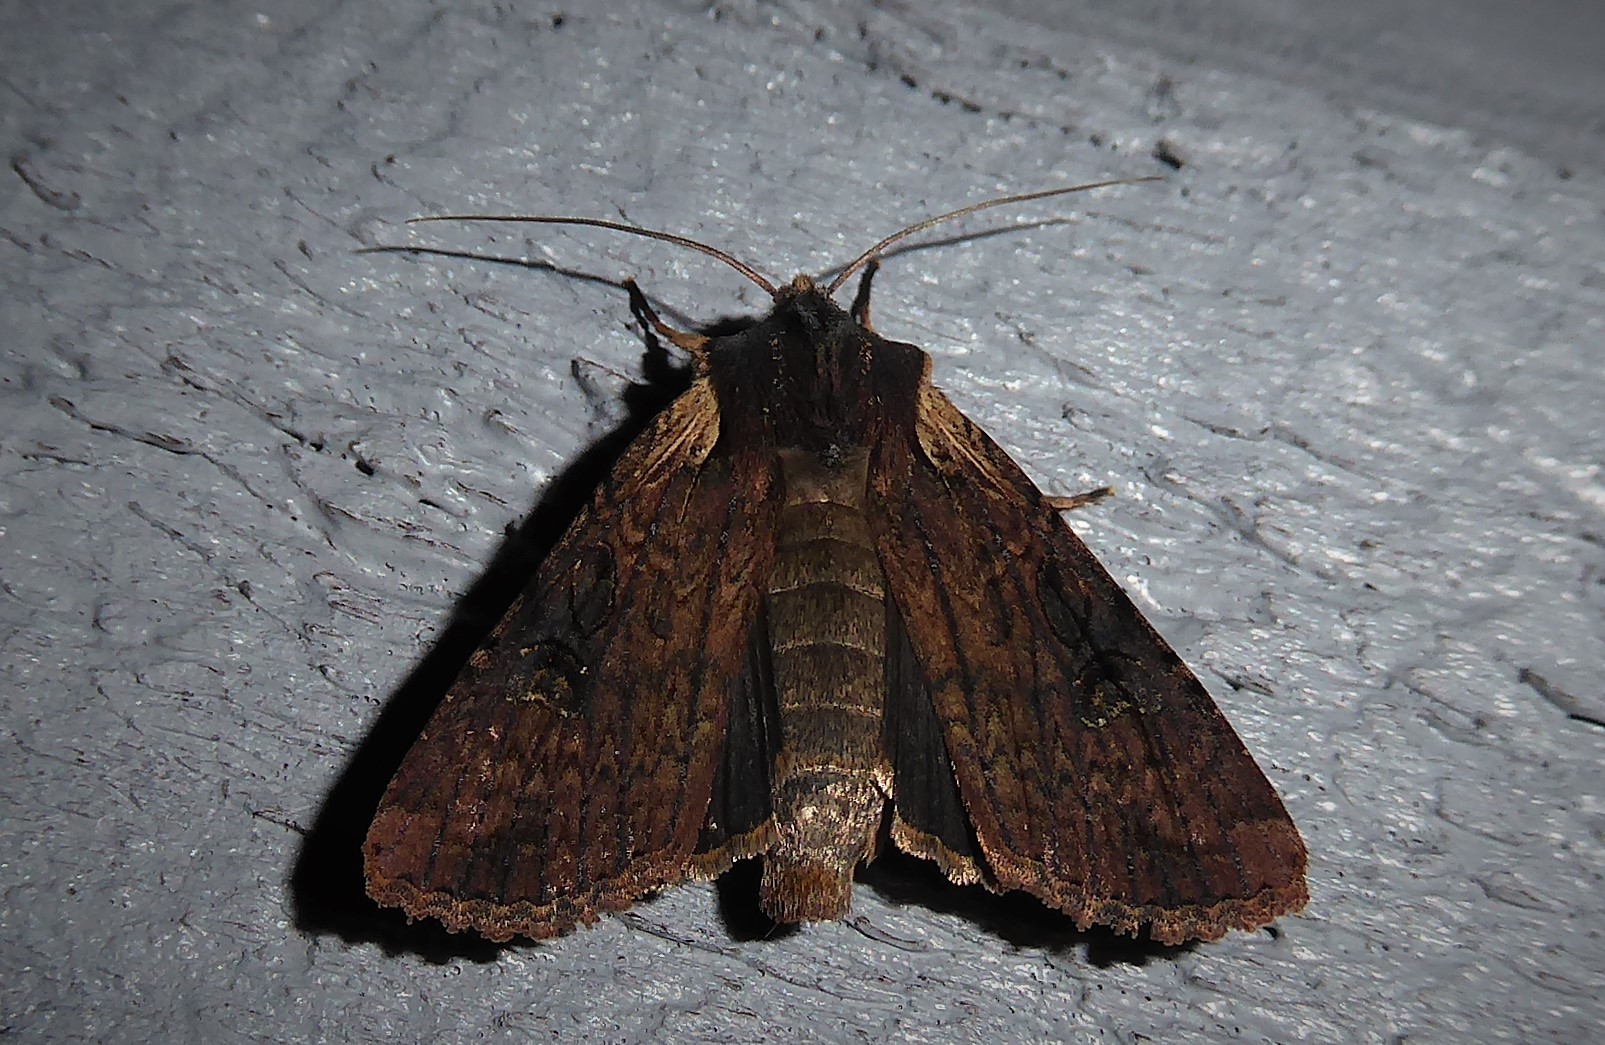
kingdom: Animalia
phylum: Arthropoda
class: Insecta
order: Lepidoptera
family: Noctuidae
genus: Ichneutica
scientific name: Ichneutica omoplaca
